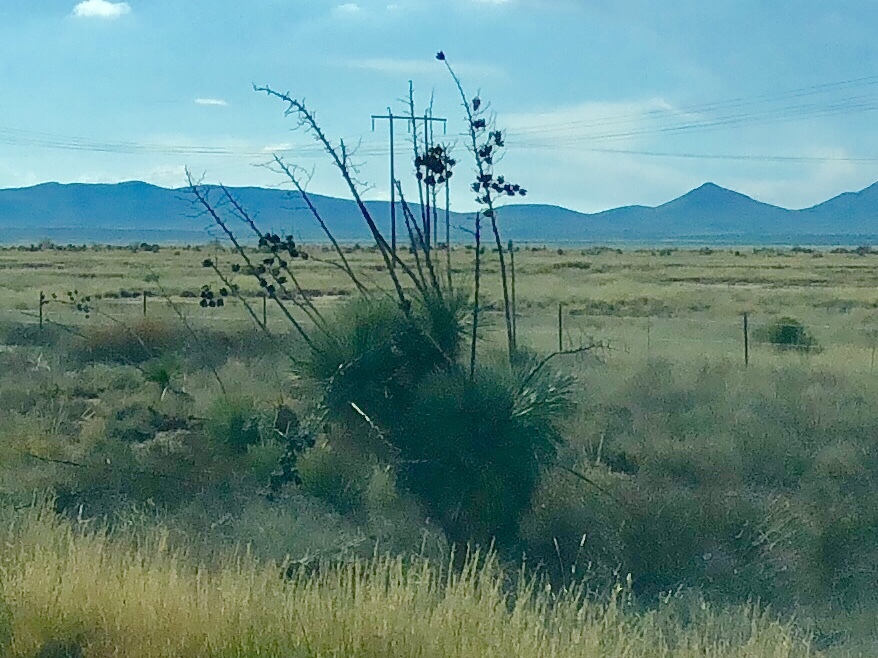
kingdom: Plantae
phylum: Tracheophyta
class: Liliopsida
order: Asparagales
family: Asparagaceae
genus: Yucca
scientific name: Yucca elata
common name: Palmella
